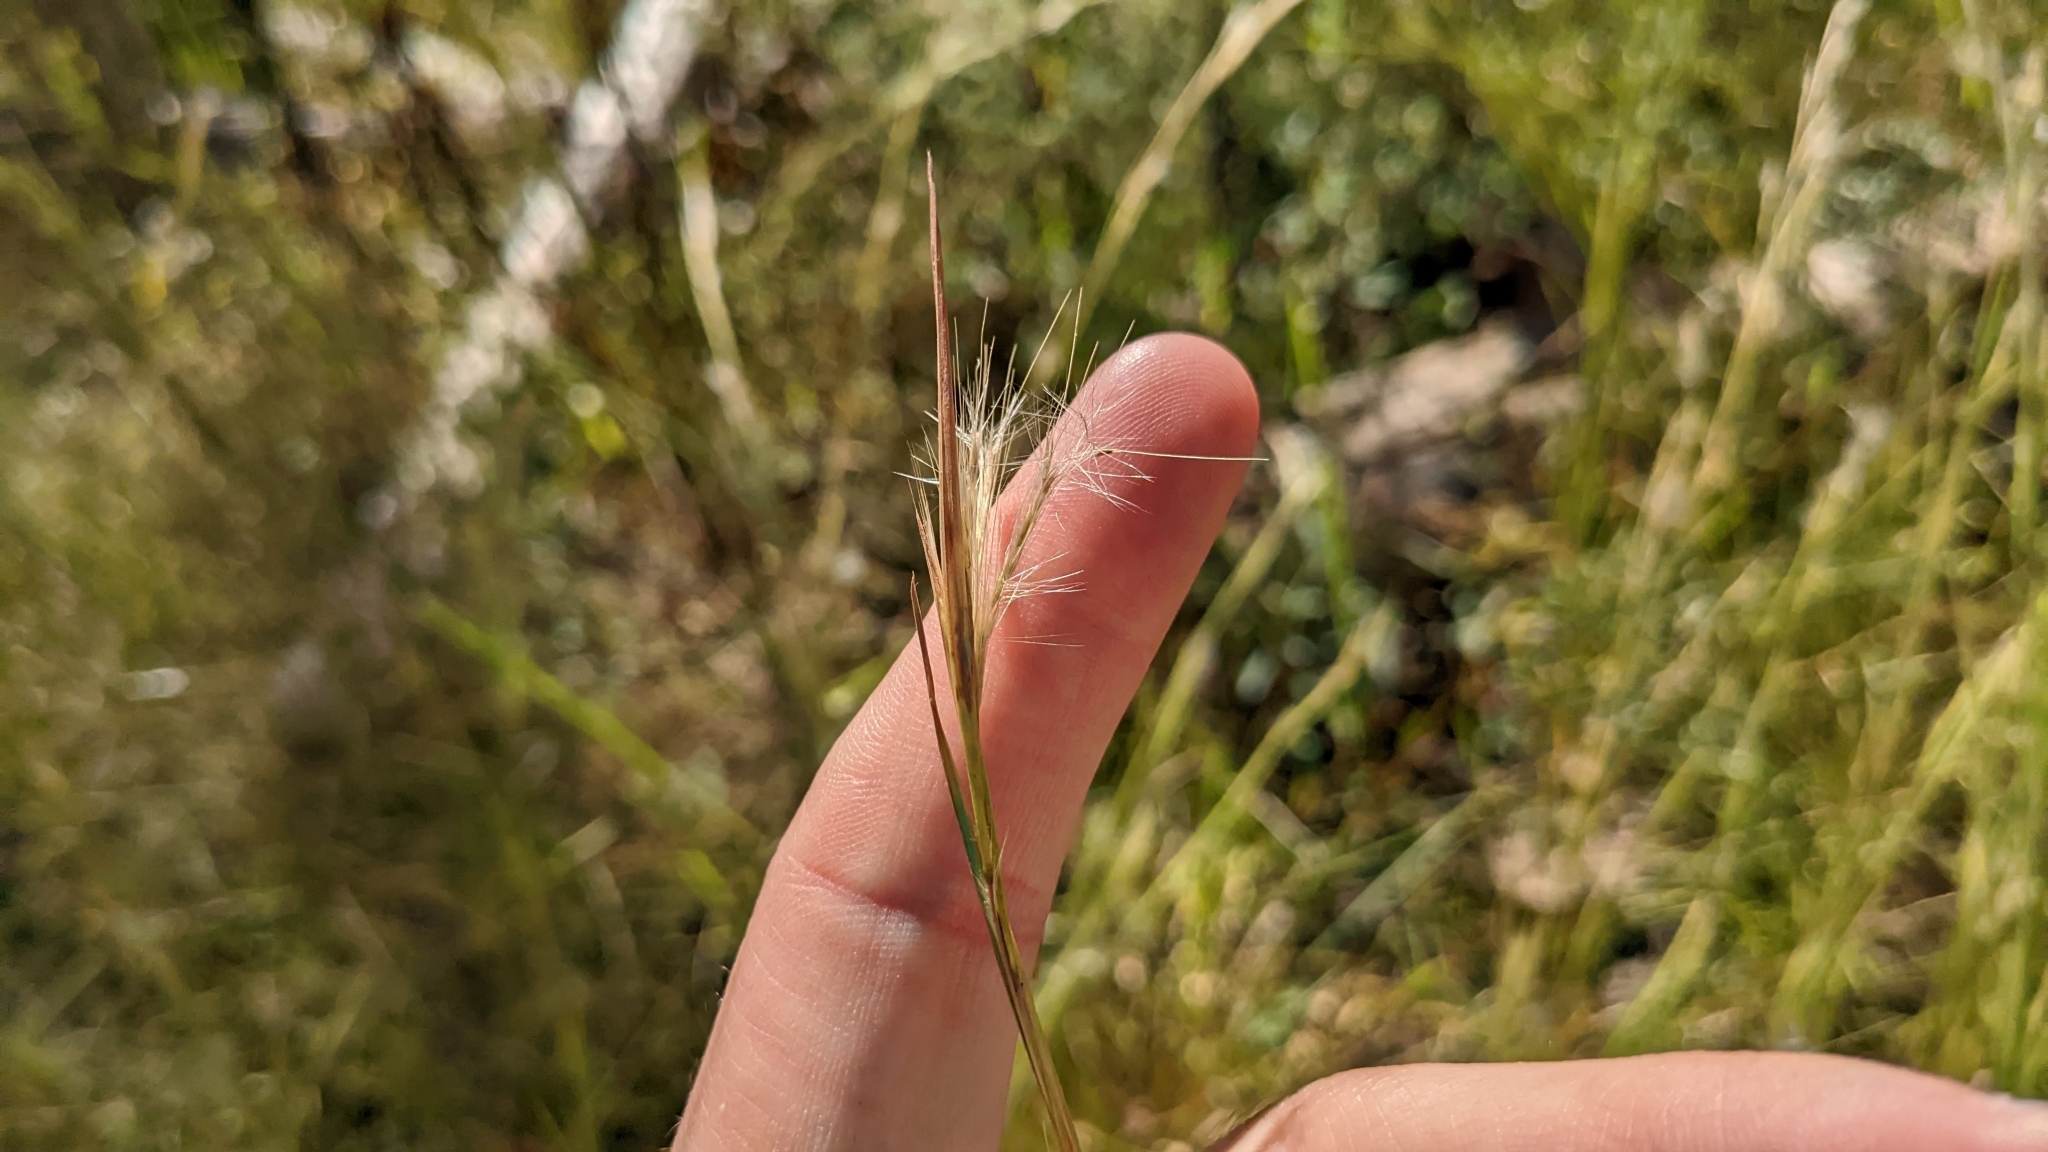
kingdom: Plantae
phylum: Tracheophyta
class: Liliopsida
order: Poales
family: Poaceae
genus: Andropogon
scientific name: Andropogon virginicus
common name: Broomsedge bluestem
